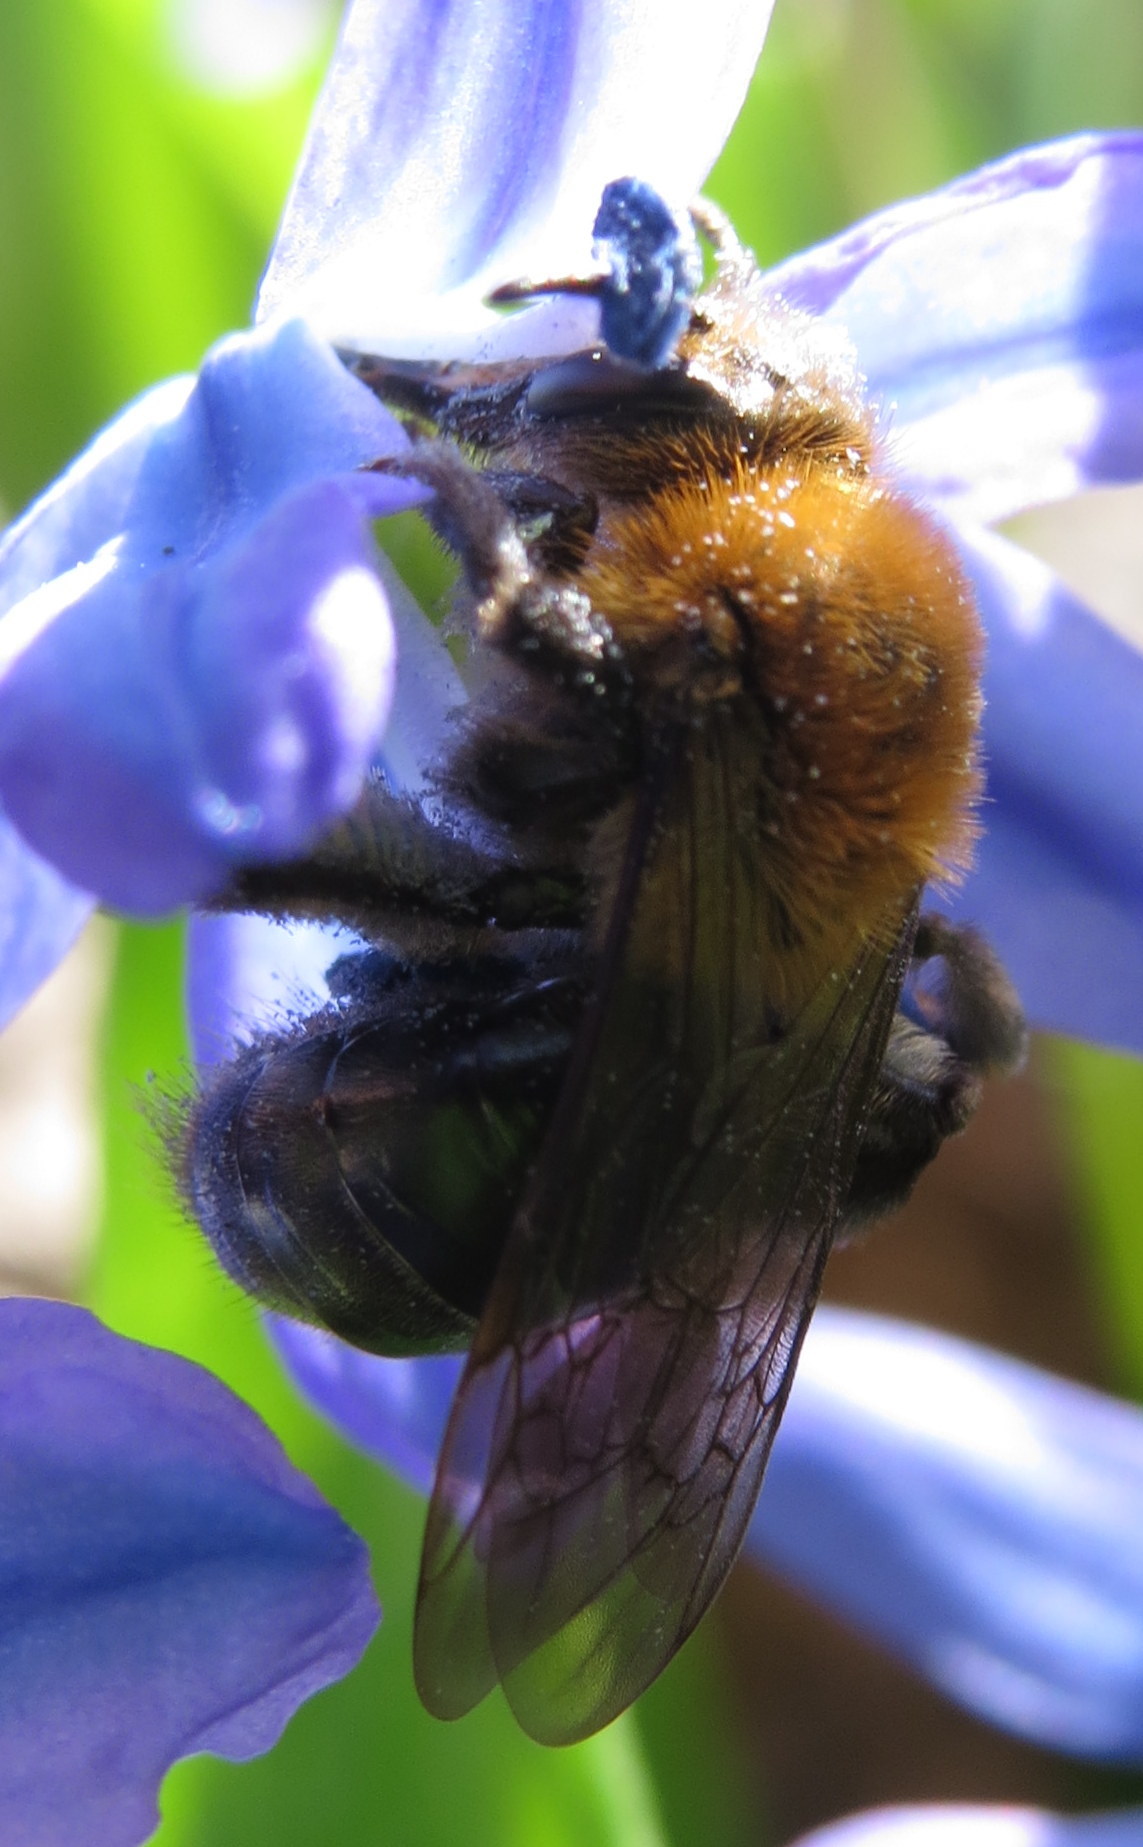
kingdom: Animalia
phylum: Arthropoda
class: Insecta
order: Hymenoptera
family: Andrenidae
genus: Andrena
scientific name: Andrena dunningi
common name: Dunning's miner
